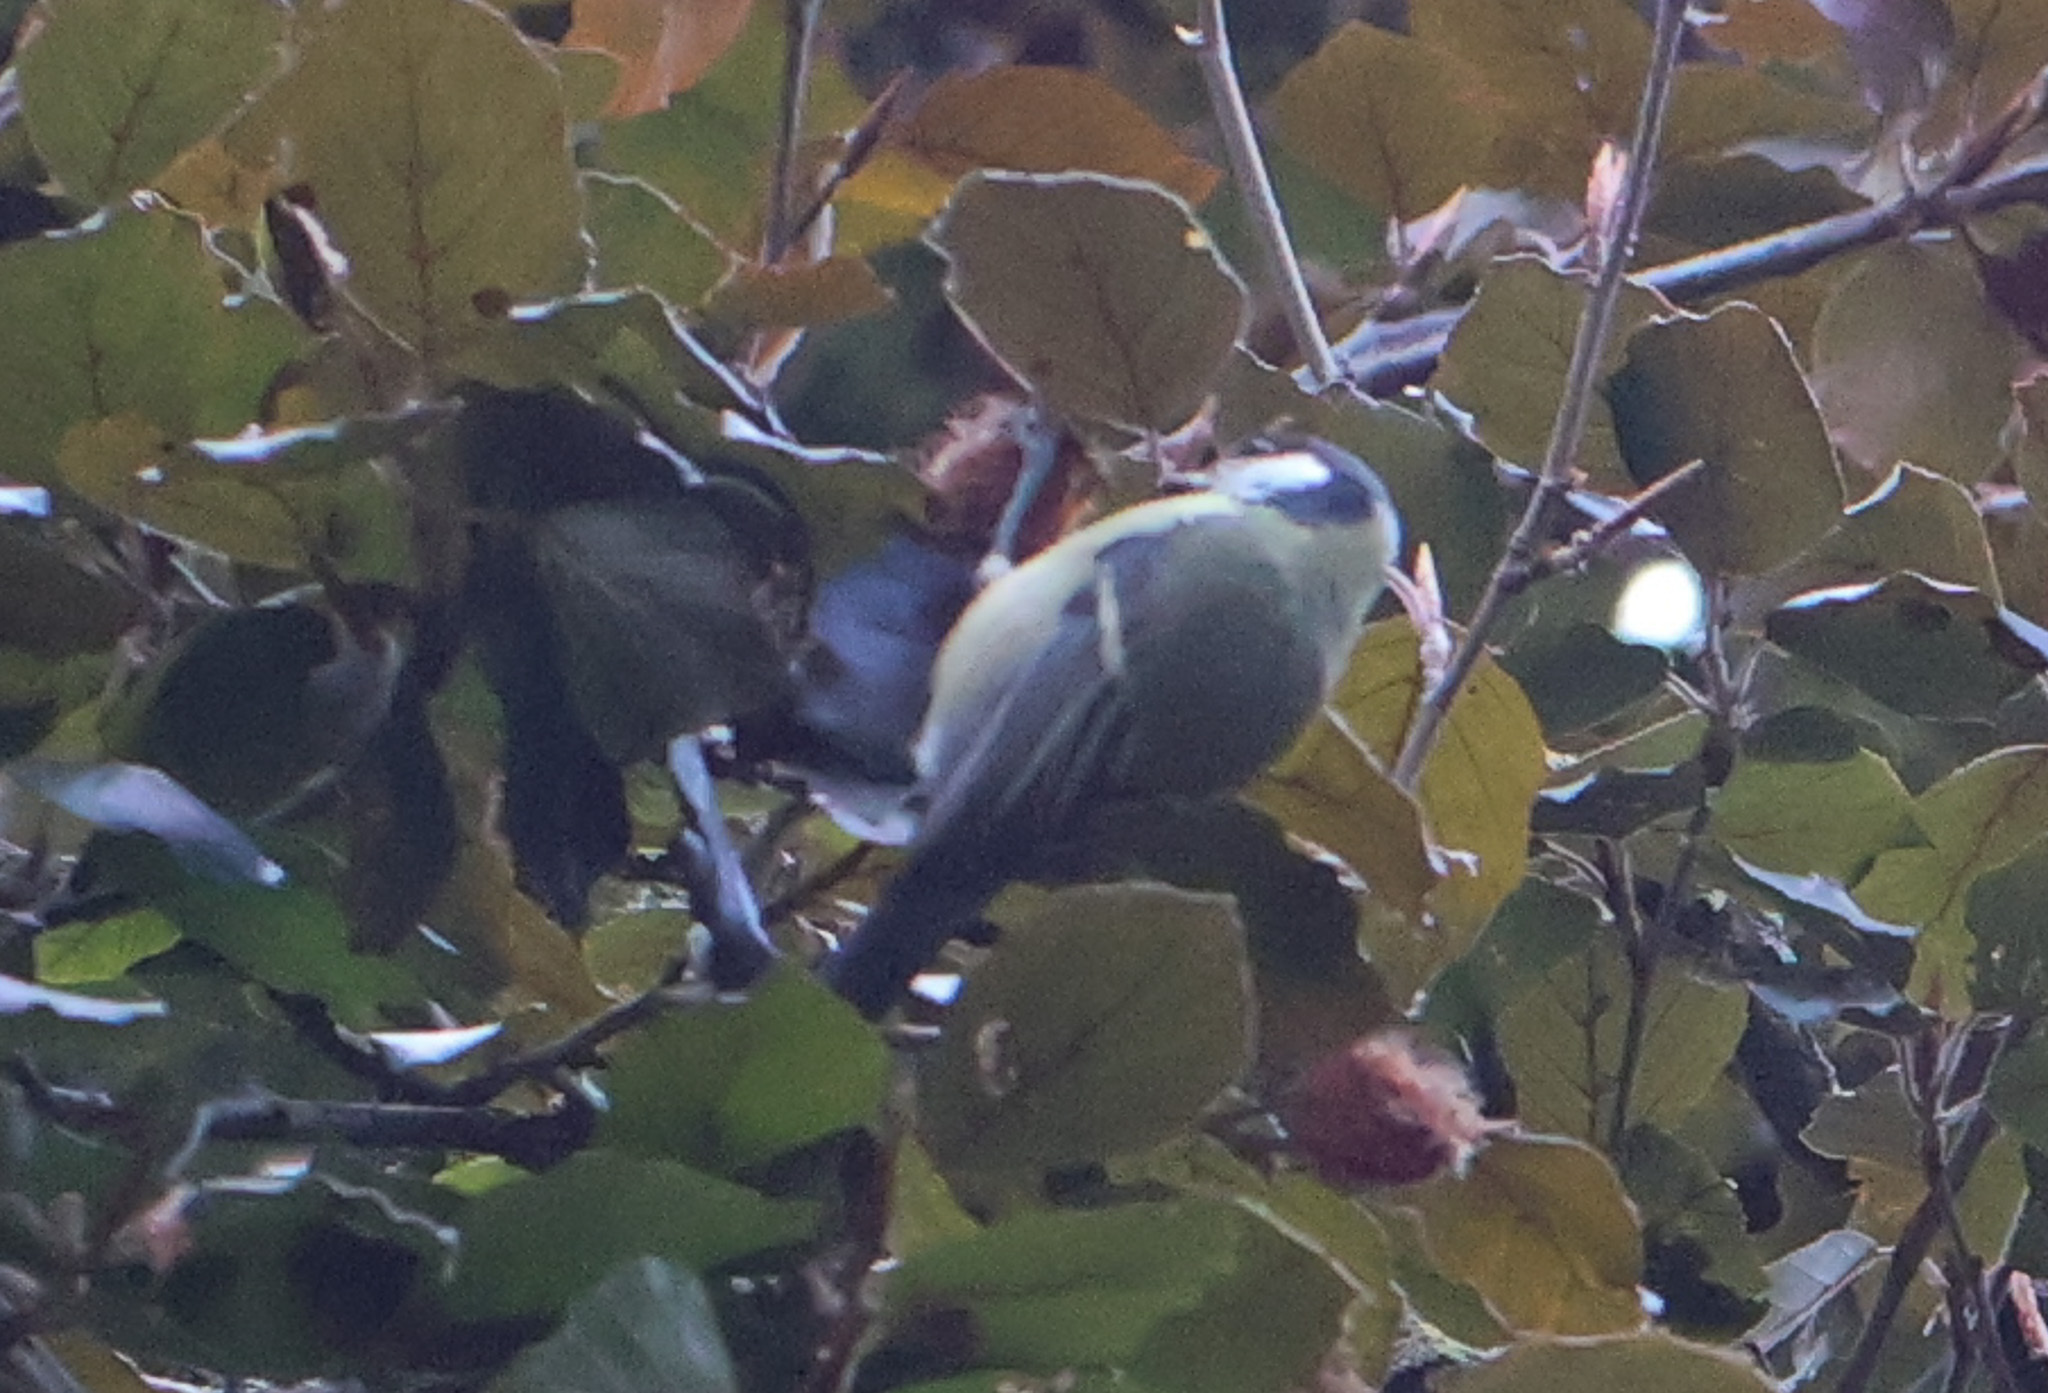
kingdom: Animalia
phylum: Chordata
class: Aves
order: Passeriformes
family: Paridae
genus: Parus
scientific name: Parus major
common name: Great tit
